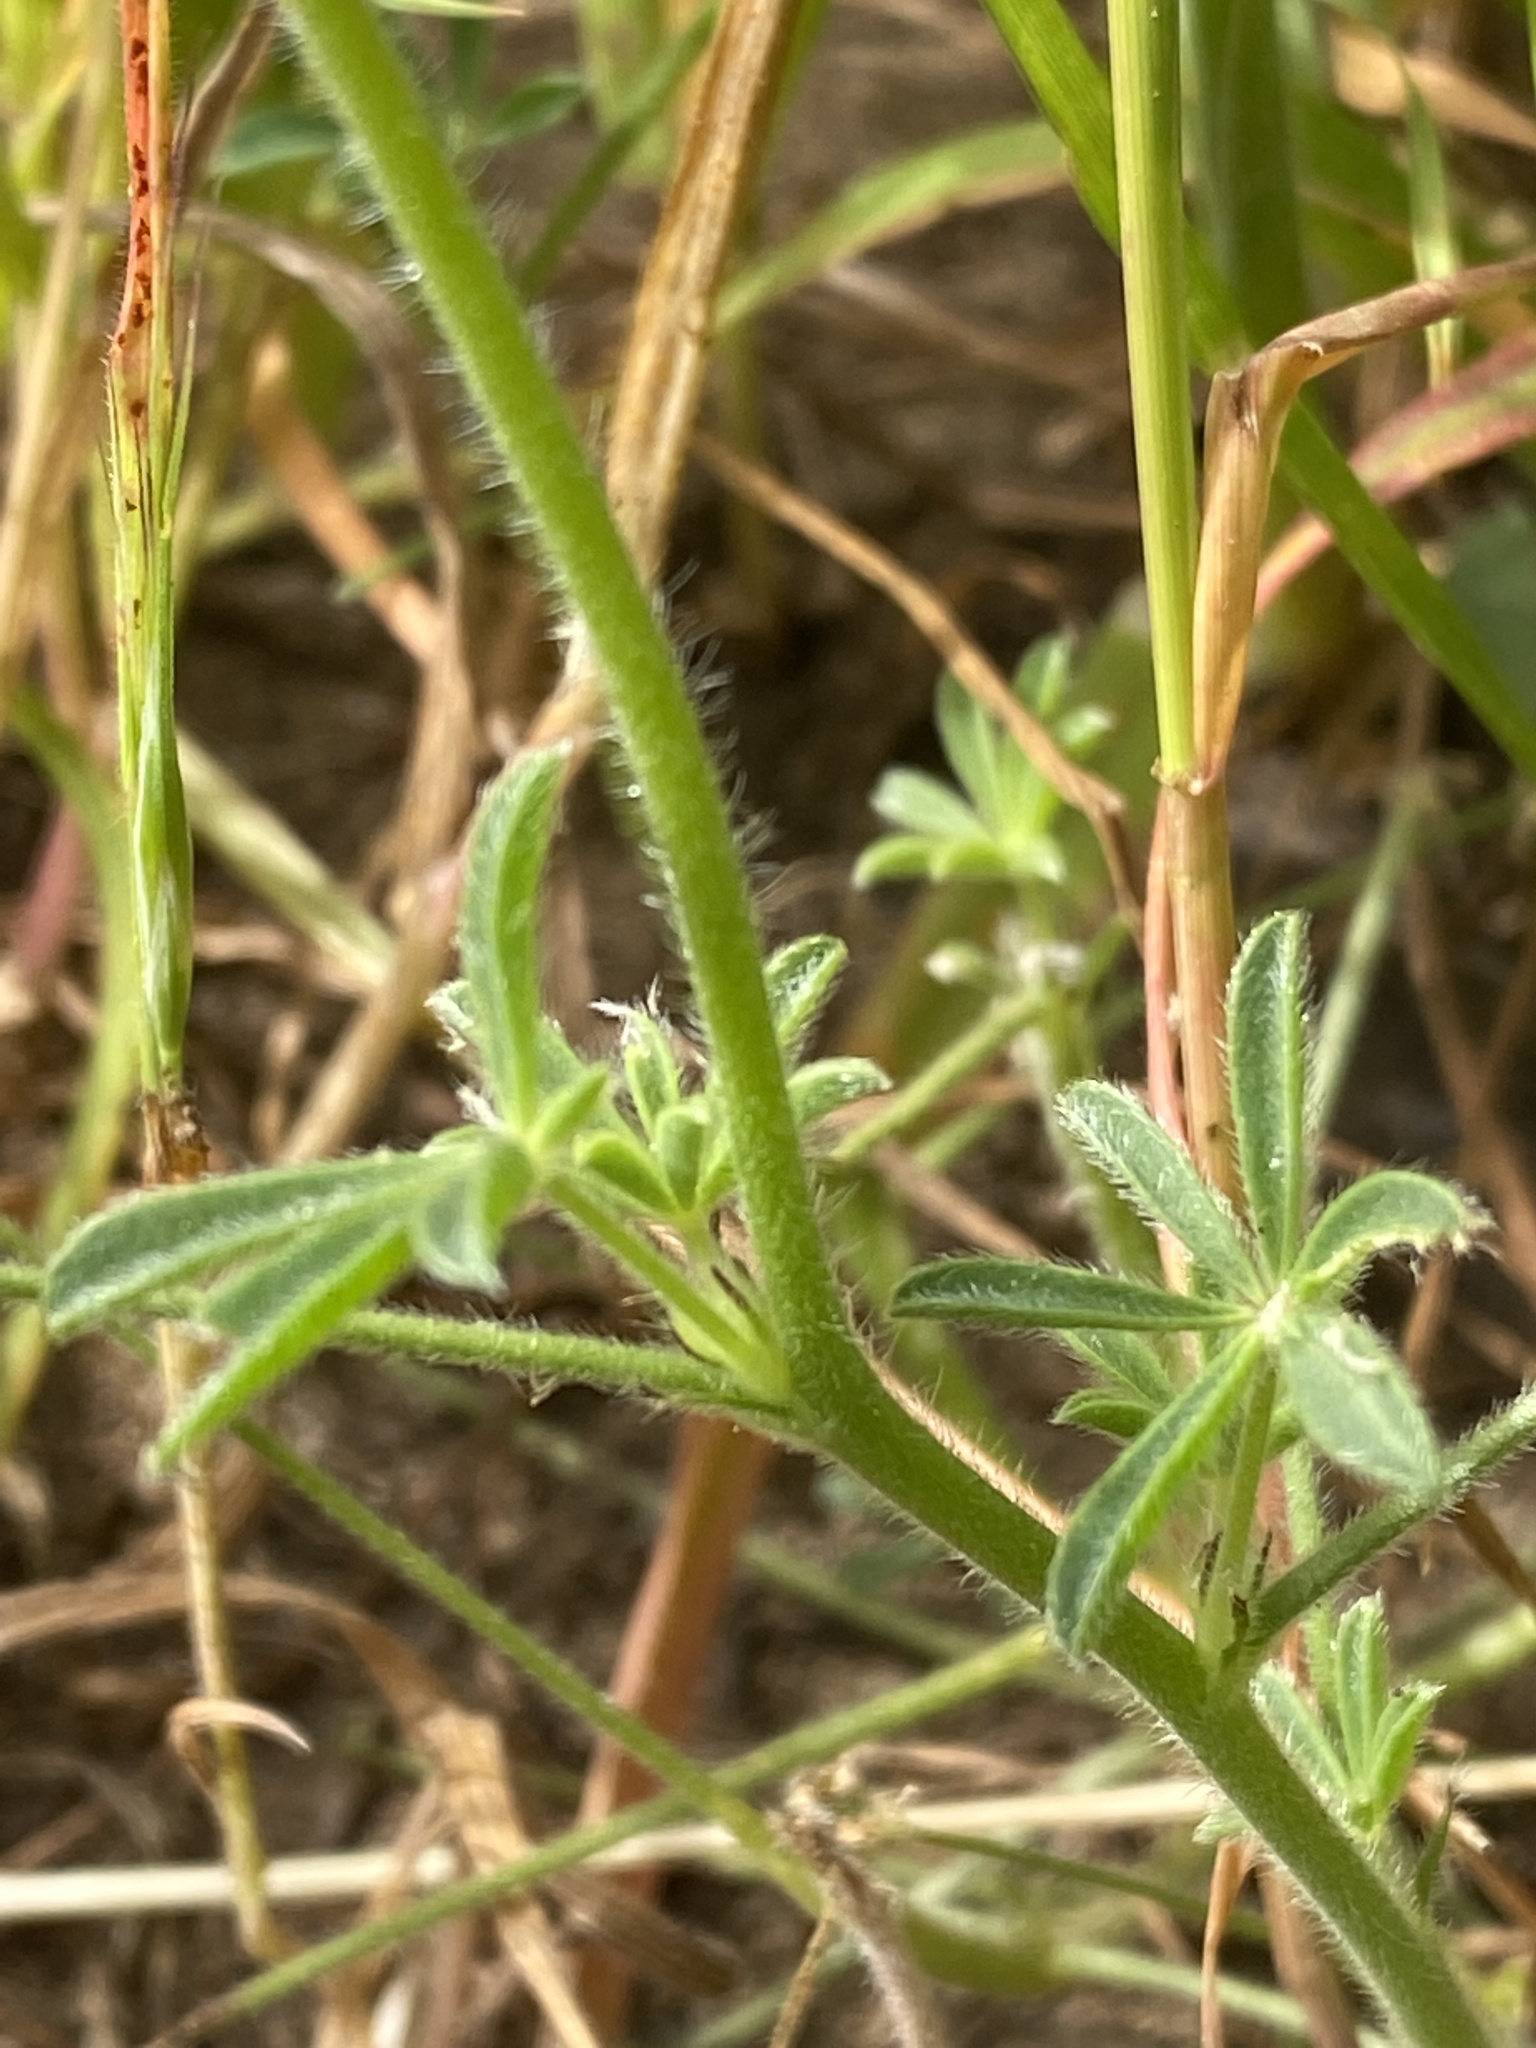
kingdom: Plantae
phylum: Tracheophyta
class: Magnoliopsida
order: Fabales
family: Fabaceae
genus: Lupinus
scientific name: Lupinus nanus
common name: Orean blue lupin
